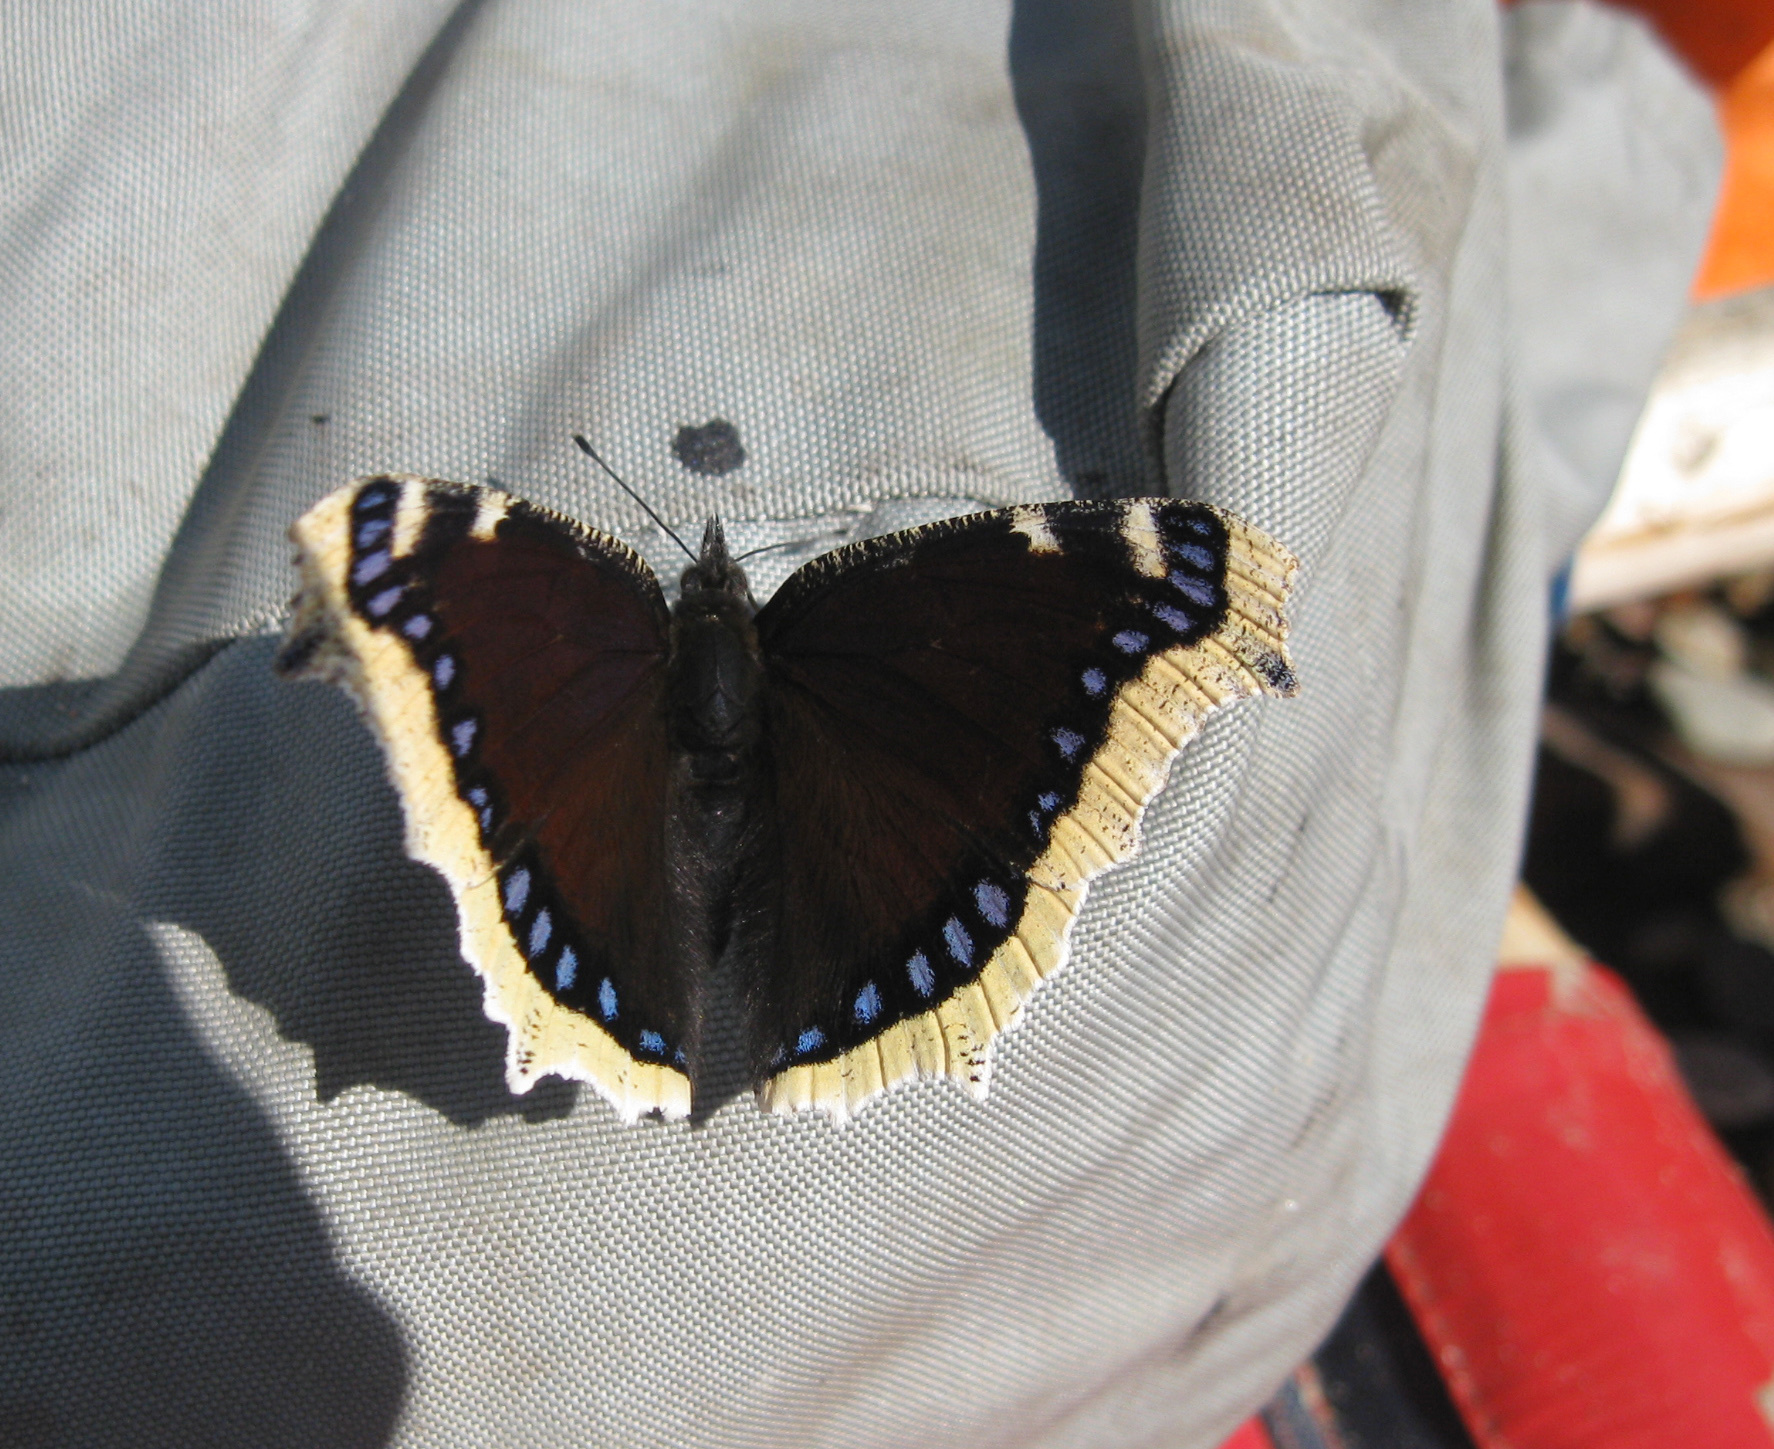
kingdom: Animalia
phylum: Arthropoda
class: Insecta
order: Lepidoptera
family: Nymphalidae
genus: Nymphalis
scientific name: Nymphalis antiopa
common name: Camberwell beauty
